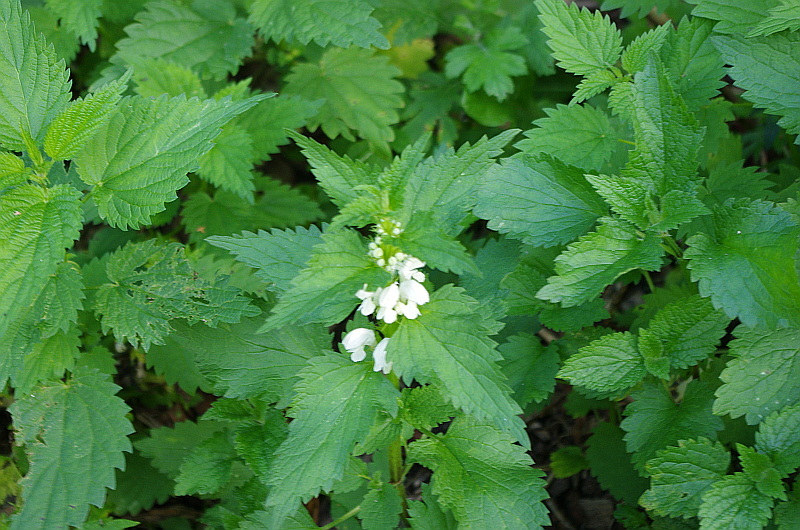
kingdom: Plantae
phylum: Tracheophyta
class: Magnoliopsida
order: Lamiales
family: Lamiaceae
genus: Lamium
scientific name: Lamium album
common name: White dead-nettle
